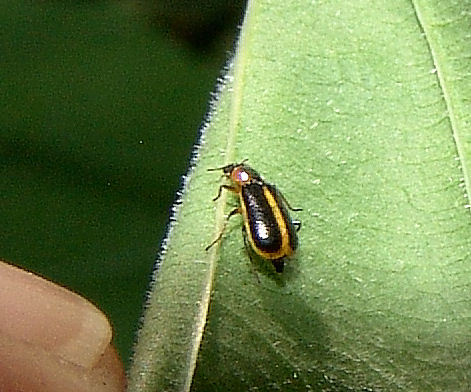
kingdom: Animalia
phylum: Arthropoda
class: Insecta
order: Coleoptera
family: Malachiidae
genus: Attalus
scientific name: Attalus
